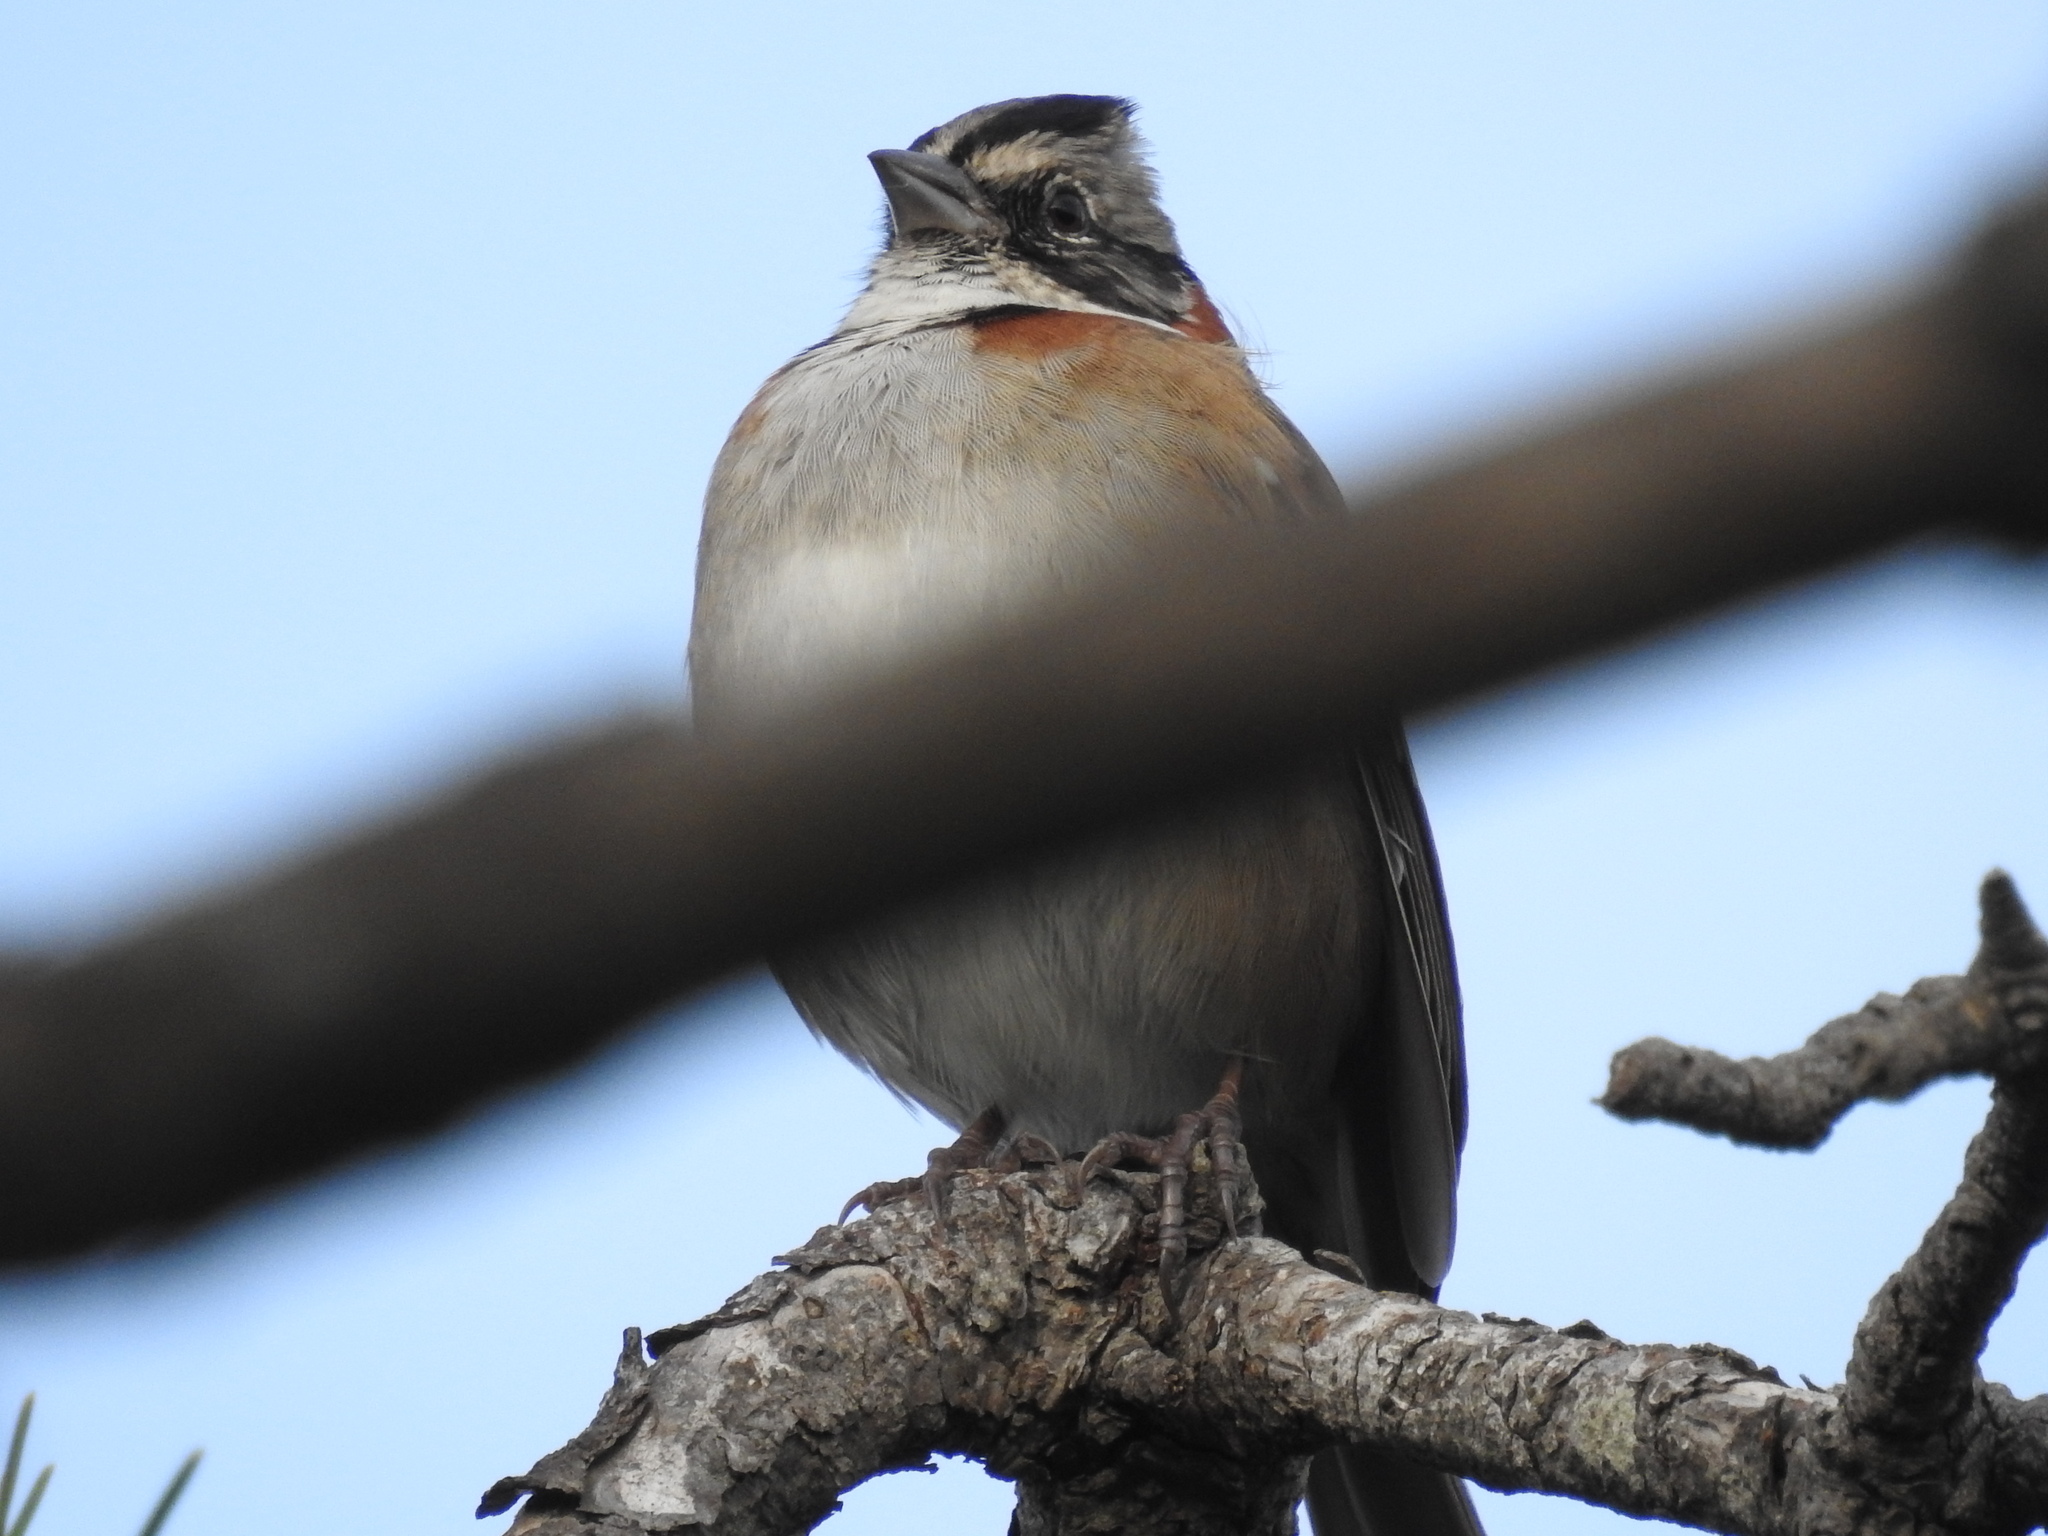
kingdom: Animalia
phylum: Chordata
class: Aves
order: Passeriformes
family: Passerellidae
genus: Zonotrichia
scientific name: Zonotrichia capensis
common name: Rufous-collared sparrow
